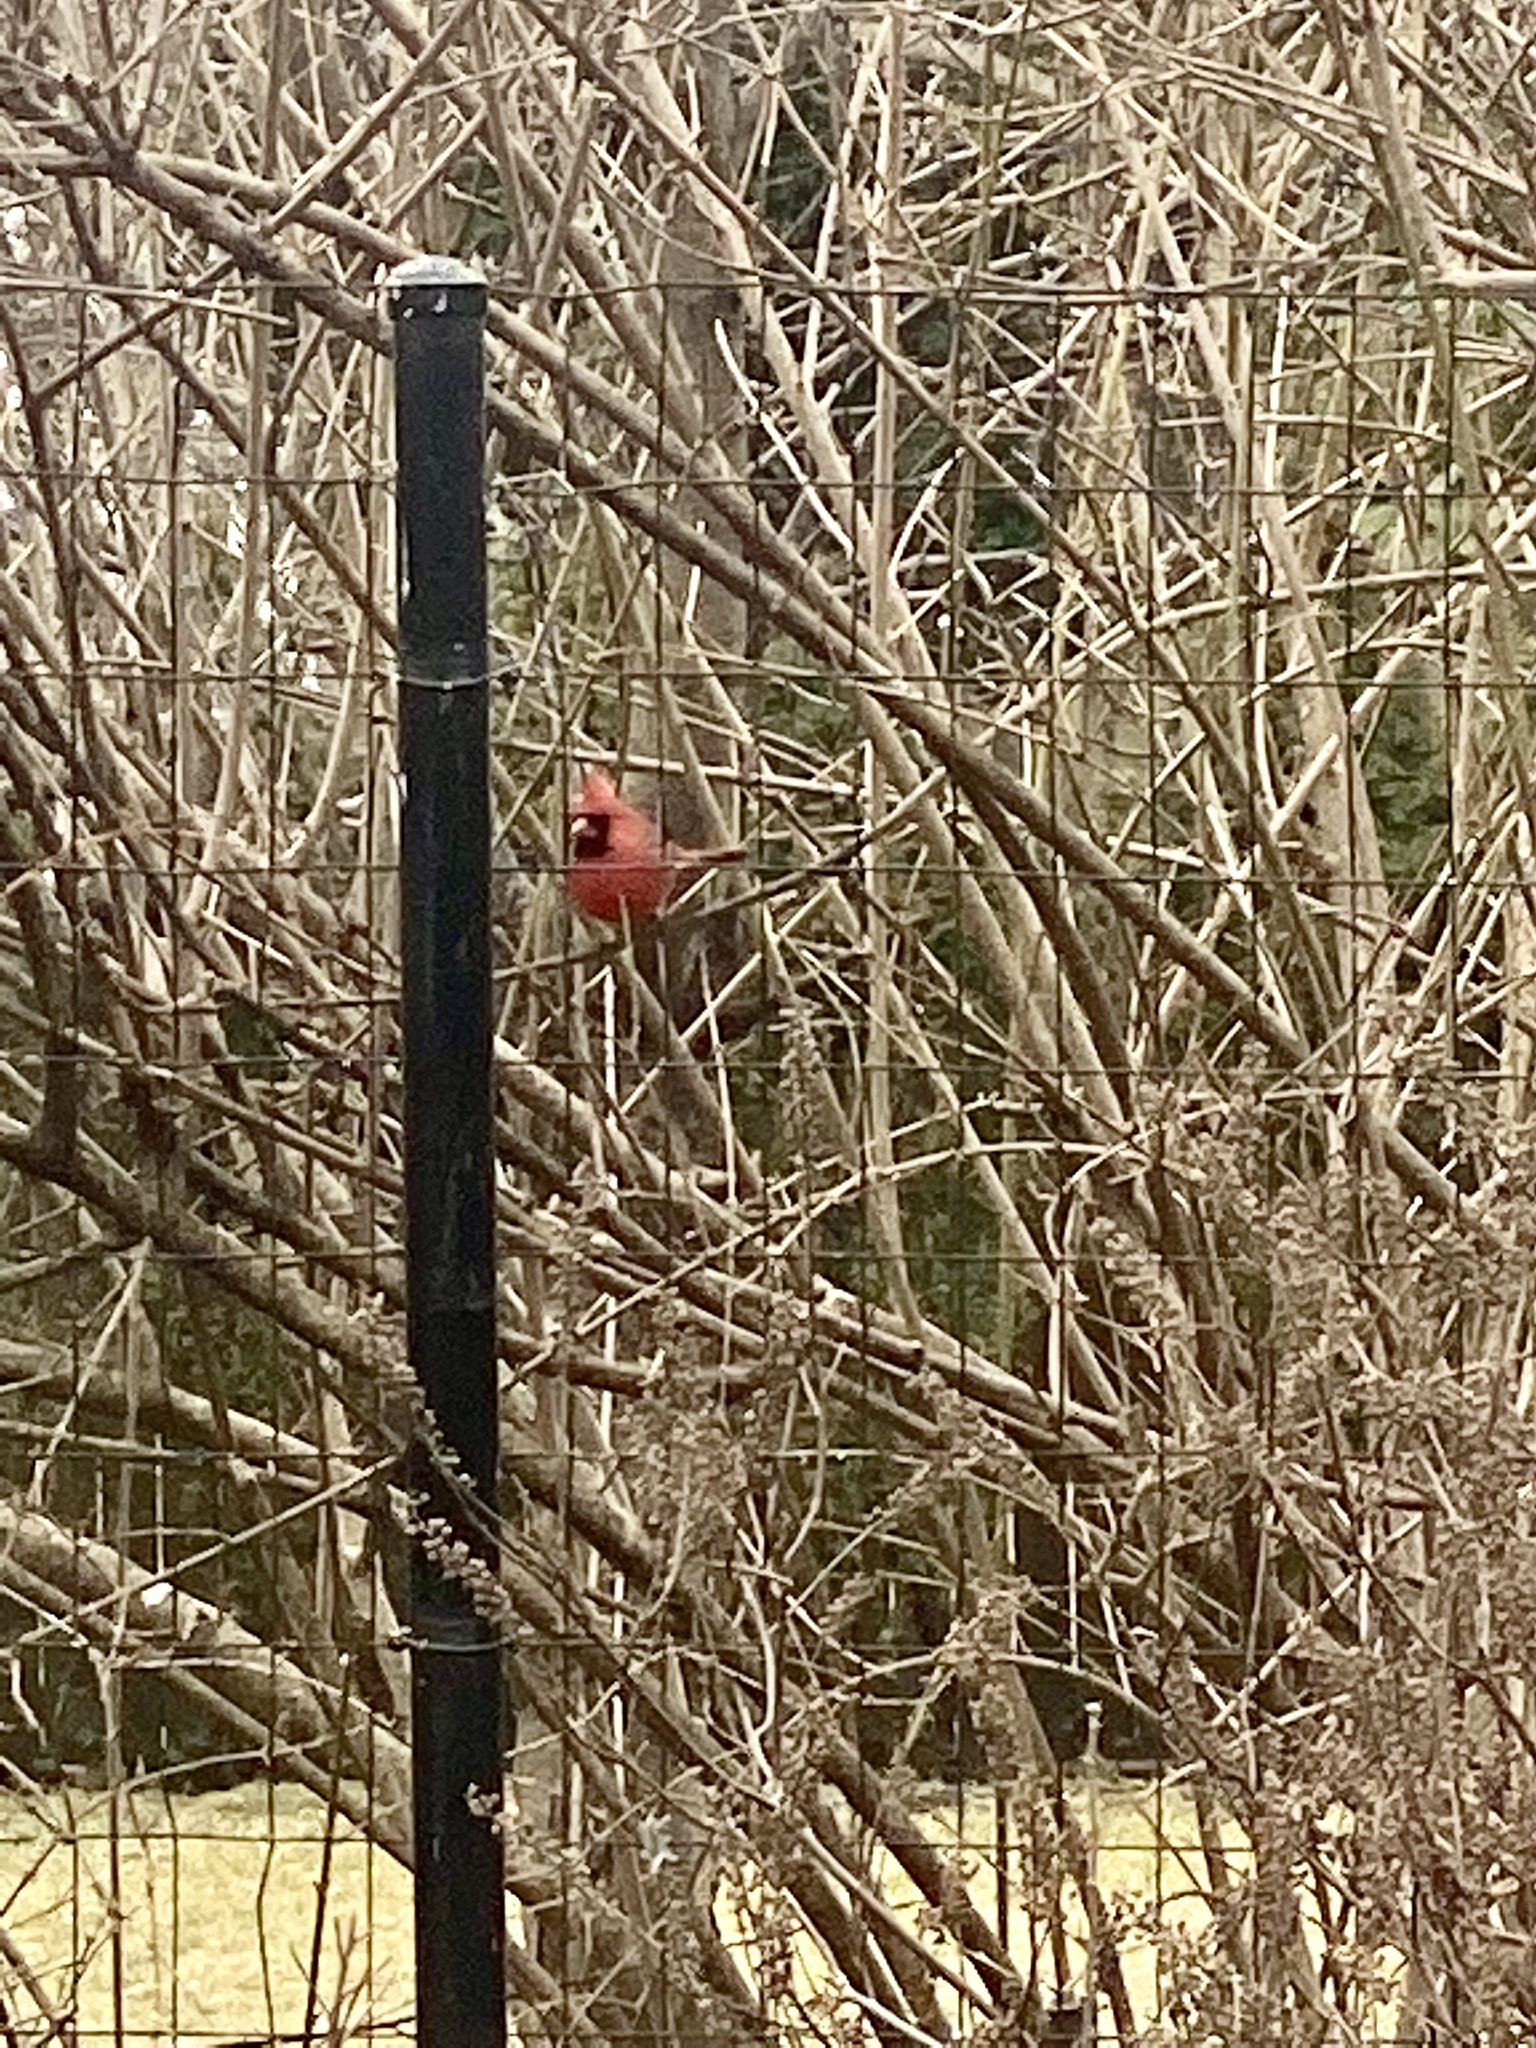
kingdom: Animalia
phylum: Chordata
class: Aves
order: Passeriformes
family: Cardinalidae
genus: Cardinalis
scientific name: Cardinalis cardinalis
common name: Northern cardinal
